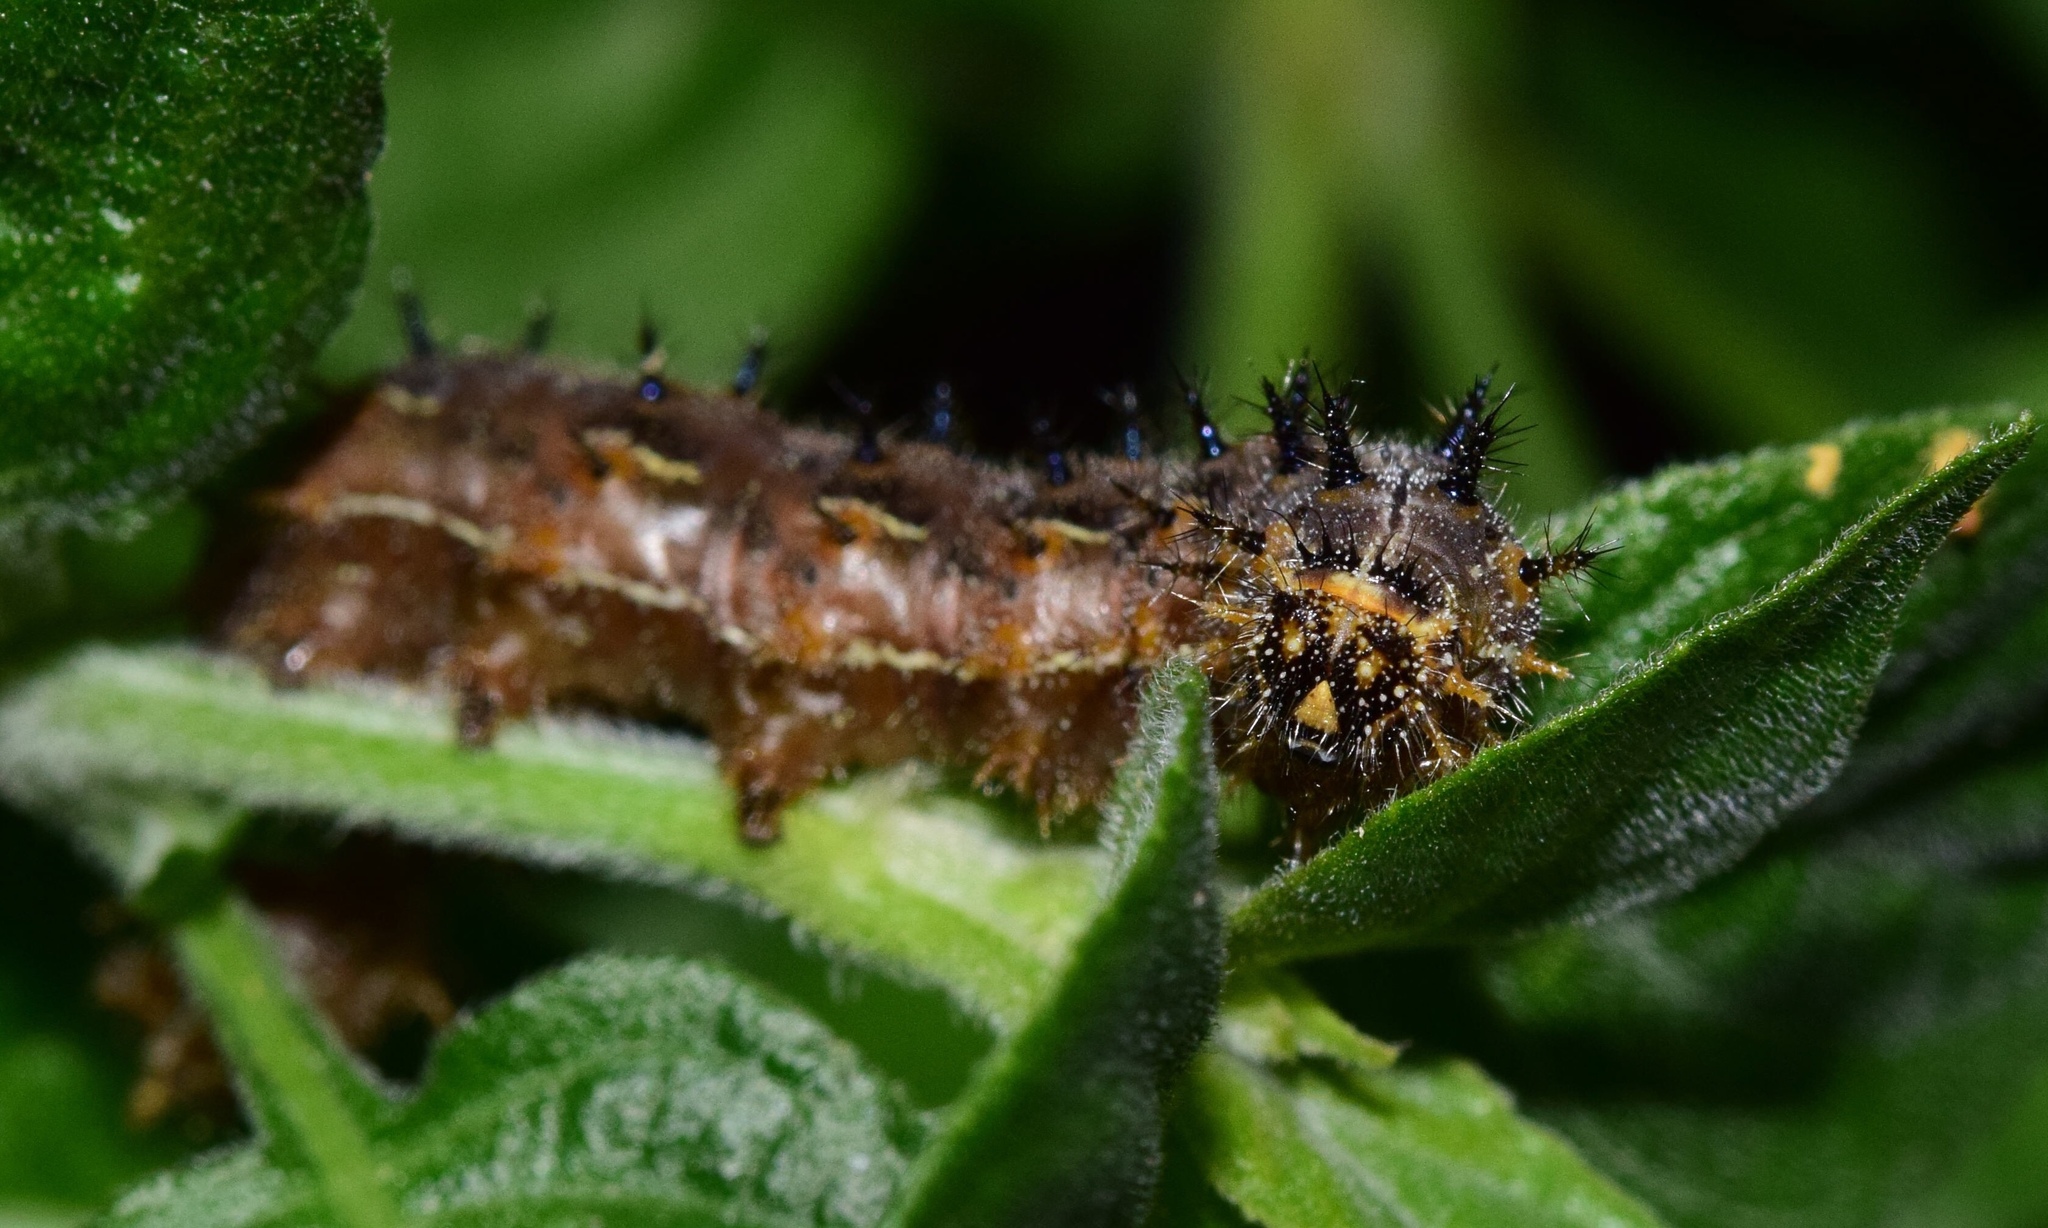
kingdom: Animalia
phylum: Arthropoda
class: Insecta
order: Lepidoptera
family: Nymphalidae
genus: Junonia
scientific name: Junonia oenone
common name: Dark blue pansy
